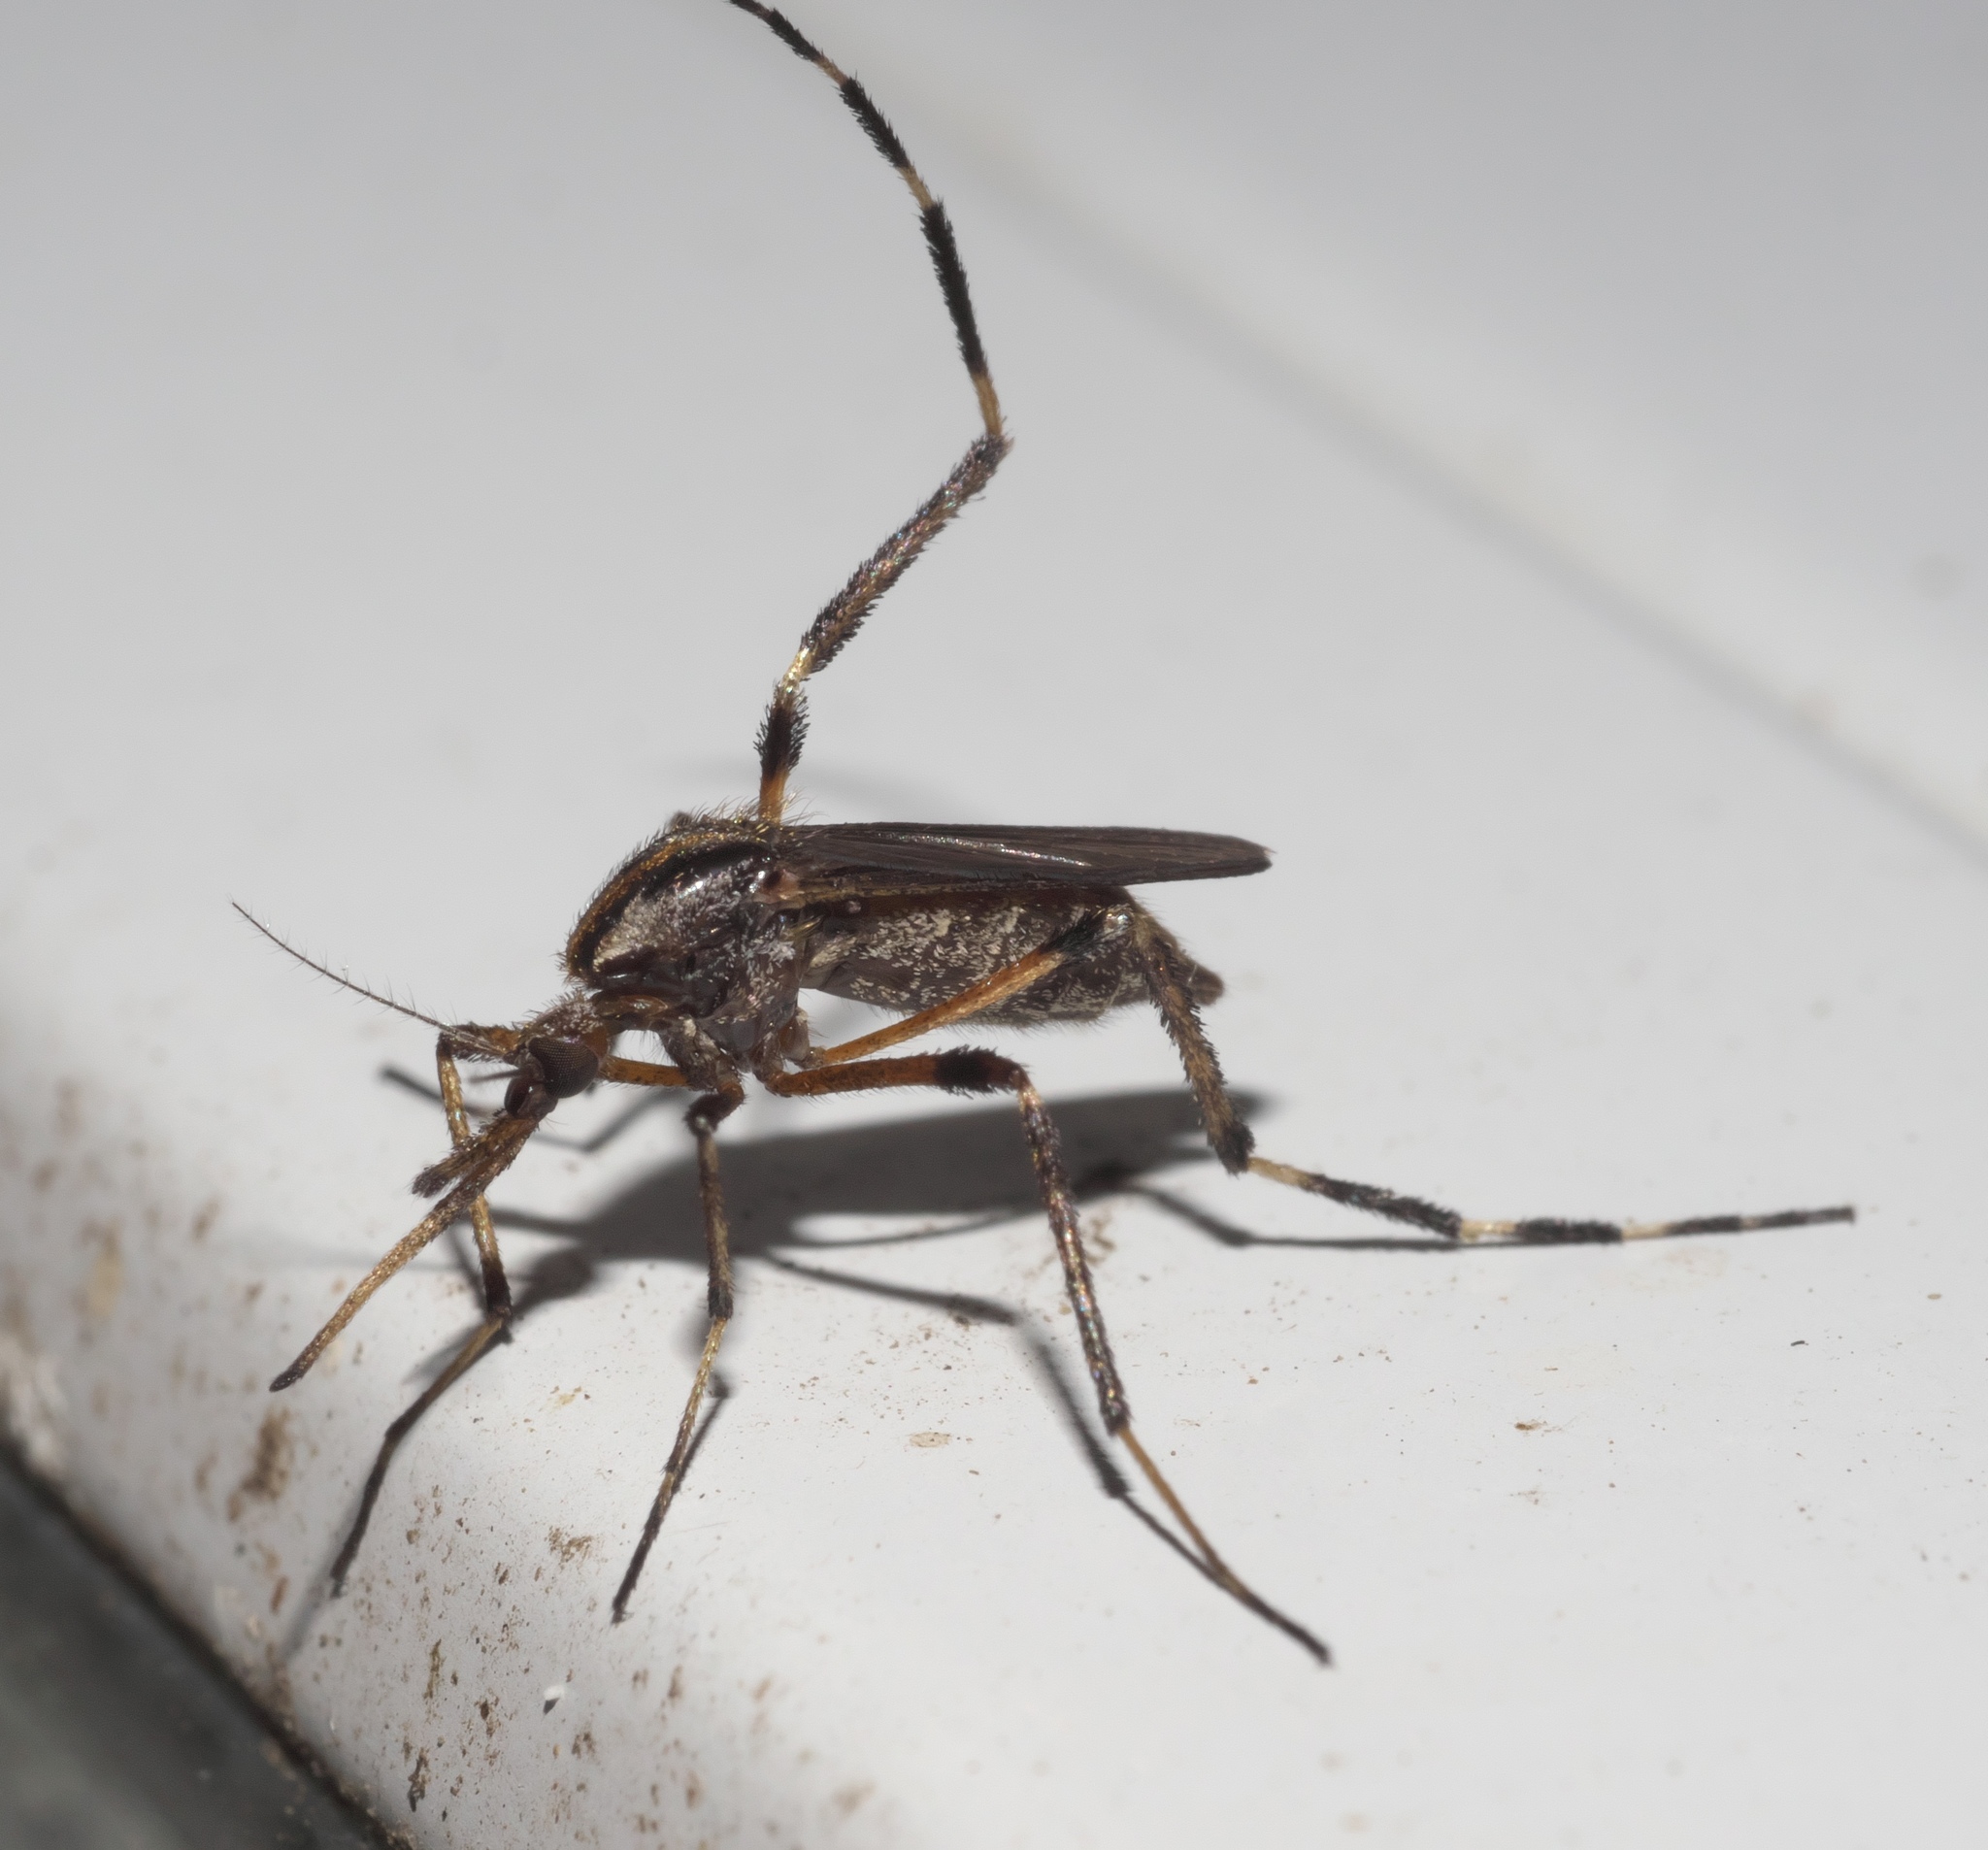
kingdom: Animalia
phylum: Arthropoda
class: Insecta
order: Diptera
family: Culicidae
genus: Psorophora
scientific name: Psorophora ciliata
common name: Gallinipper
